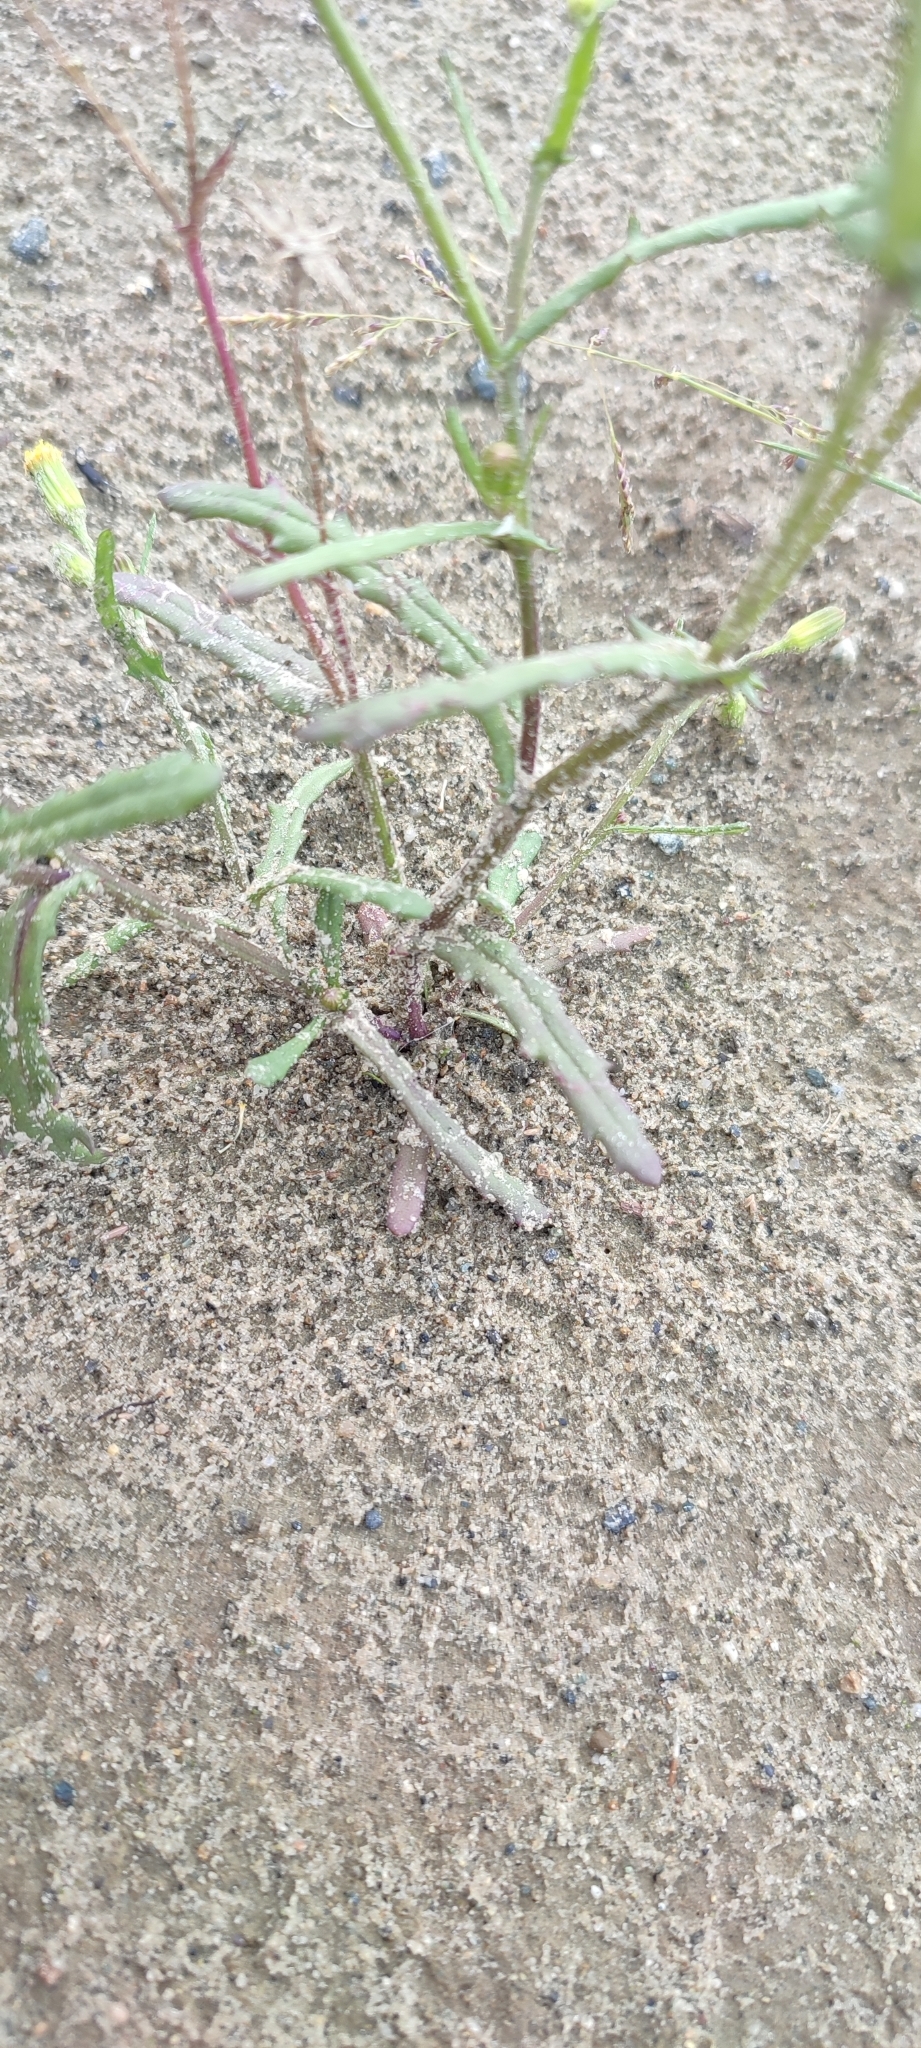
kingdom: Plantae
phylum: Tracheophyta
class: Magnoliopsida
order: Asterales
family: Asteraceae
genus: Senecio
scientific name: Senecio dubitabilis
